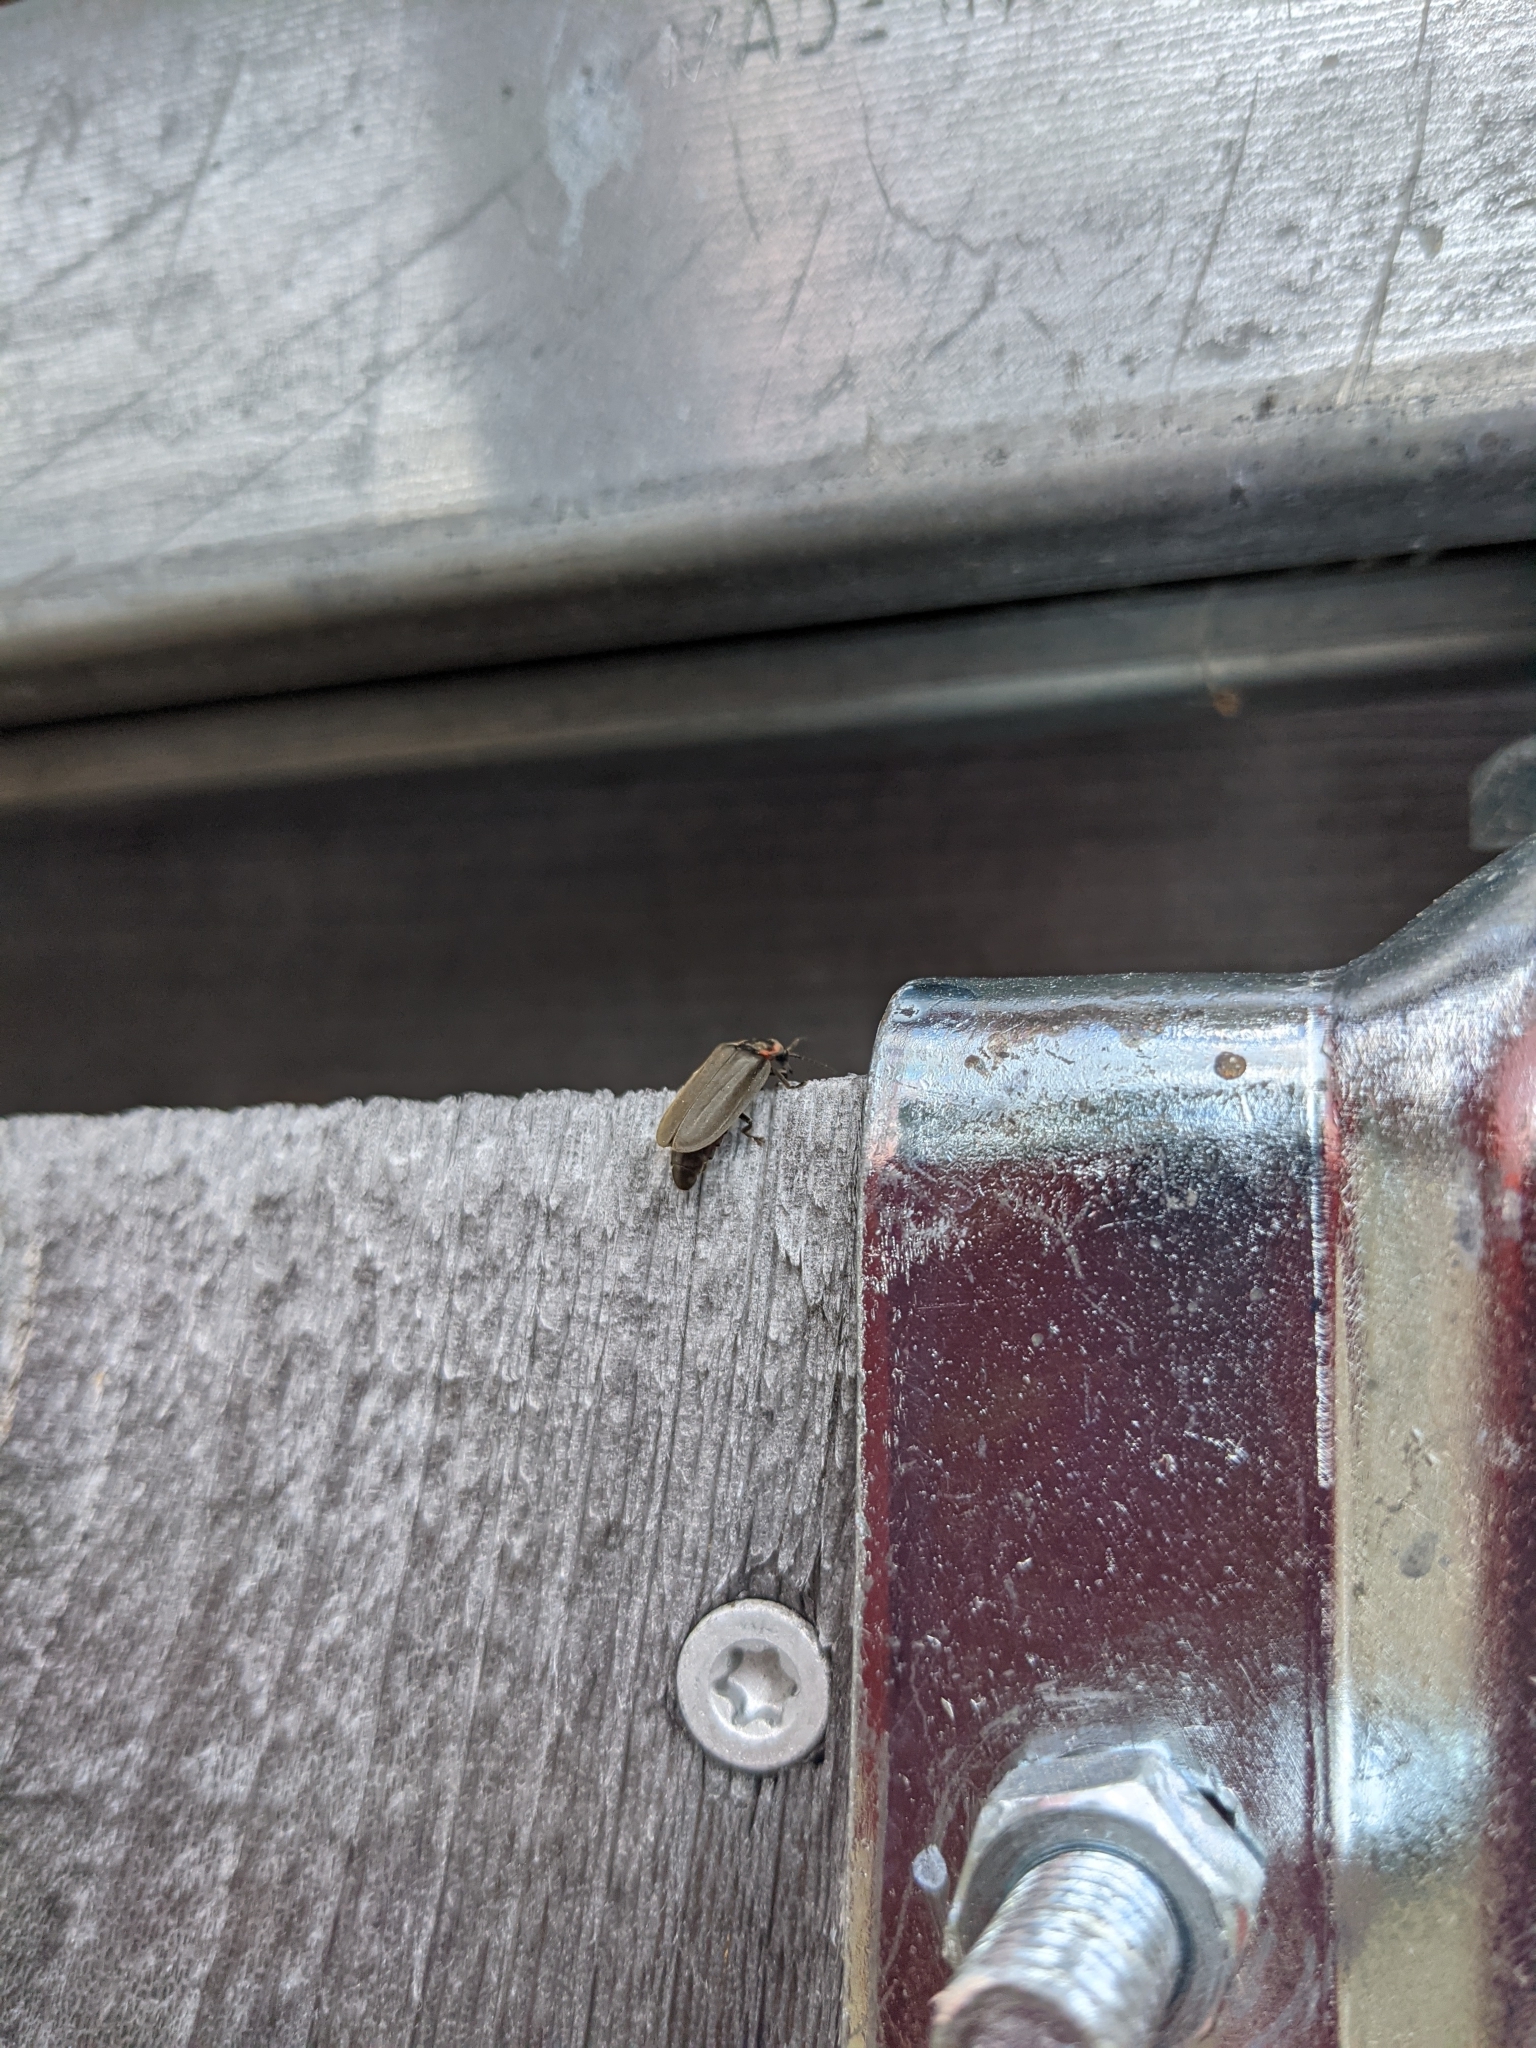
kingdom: Animalia
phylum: Arthropoda
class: Insecta
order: Coleoptera
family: Lampyridae
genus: Photinus
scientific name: Photinus corrusca
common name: Winter firefly
